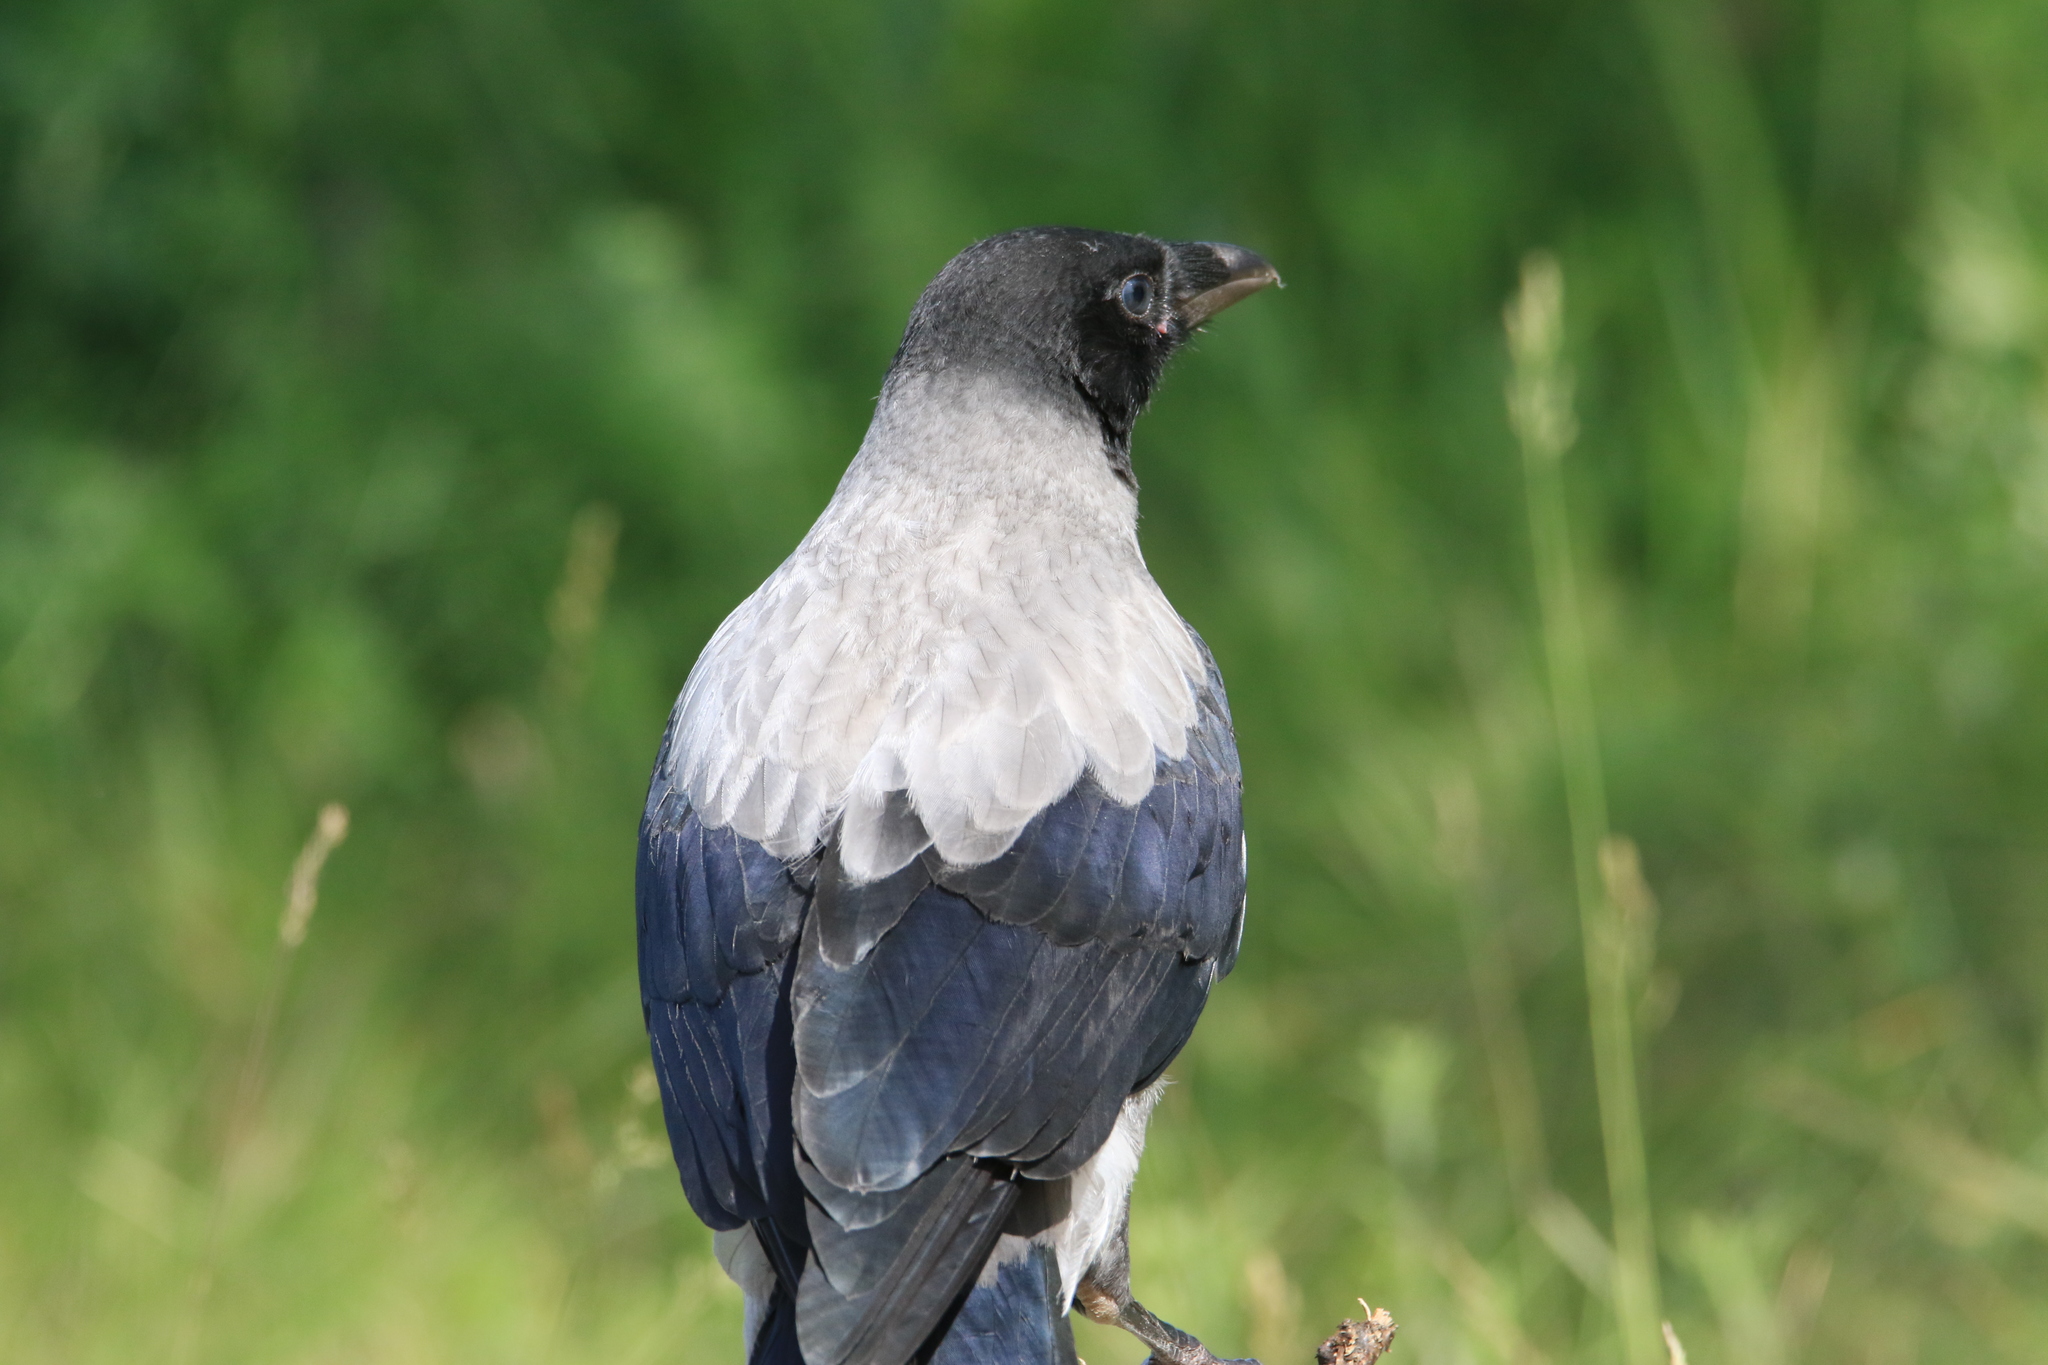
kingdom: Animalia
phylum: Chordata
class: Aves
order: Passeriformes
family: Corvidae
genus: Corvus
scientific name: Corvus cornix
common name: Hooded crow
